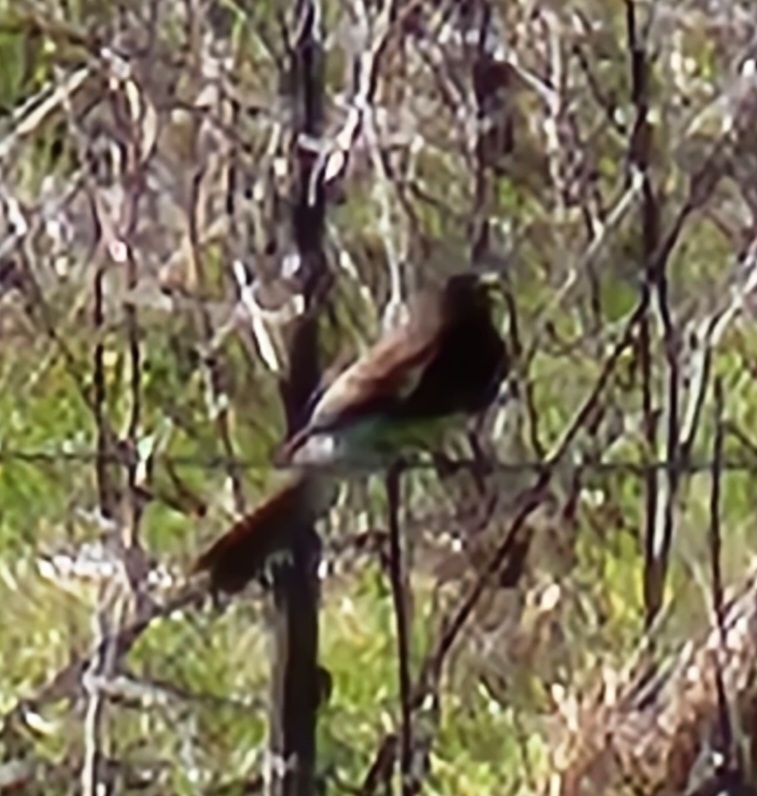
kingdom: Animalia
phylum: Chordata
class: Aves
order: Passeriformes
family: Tyrannidae
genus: Sayornis
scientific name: Sayornis nigricans
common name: Black phoebe
